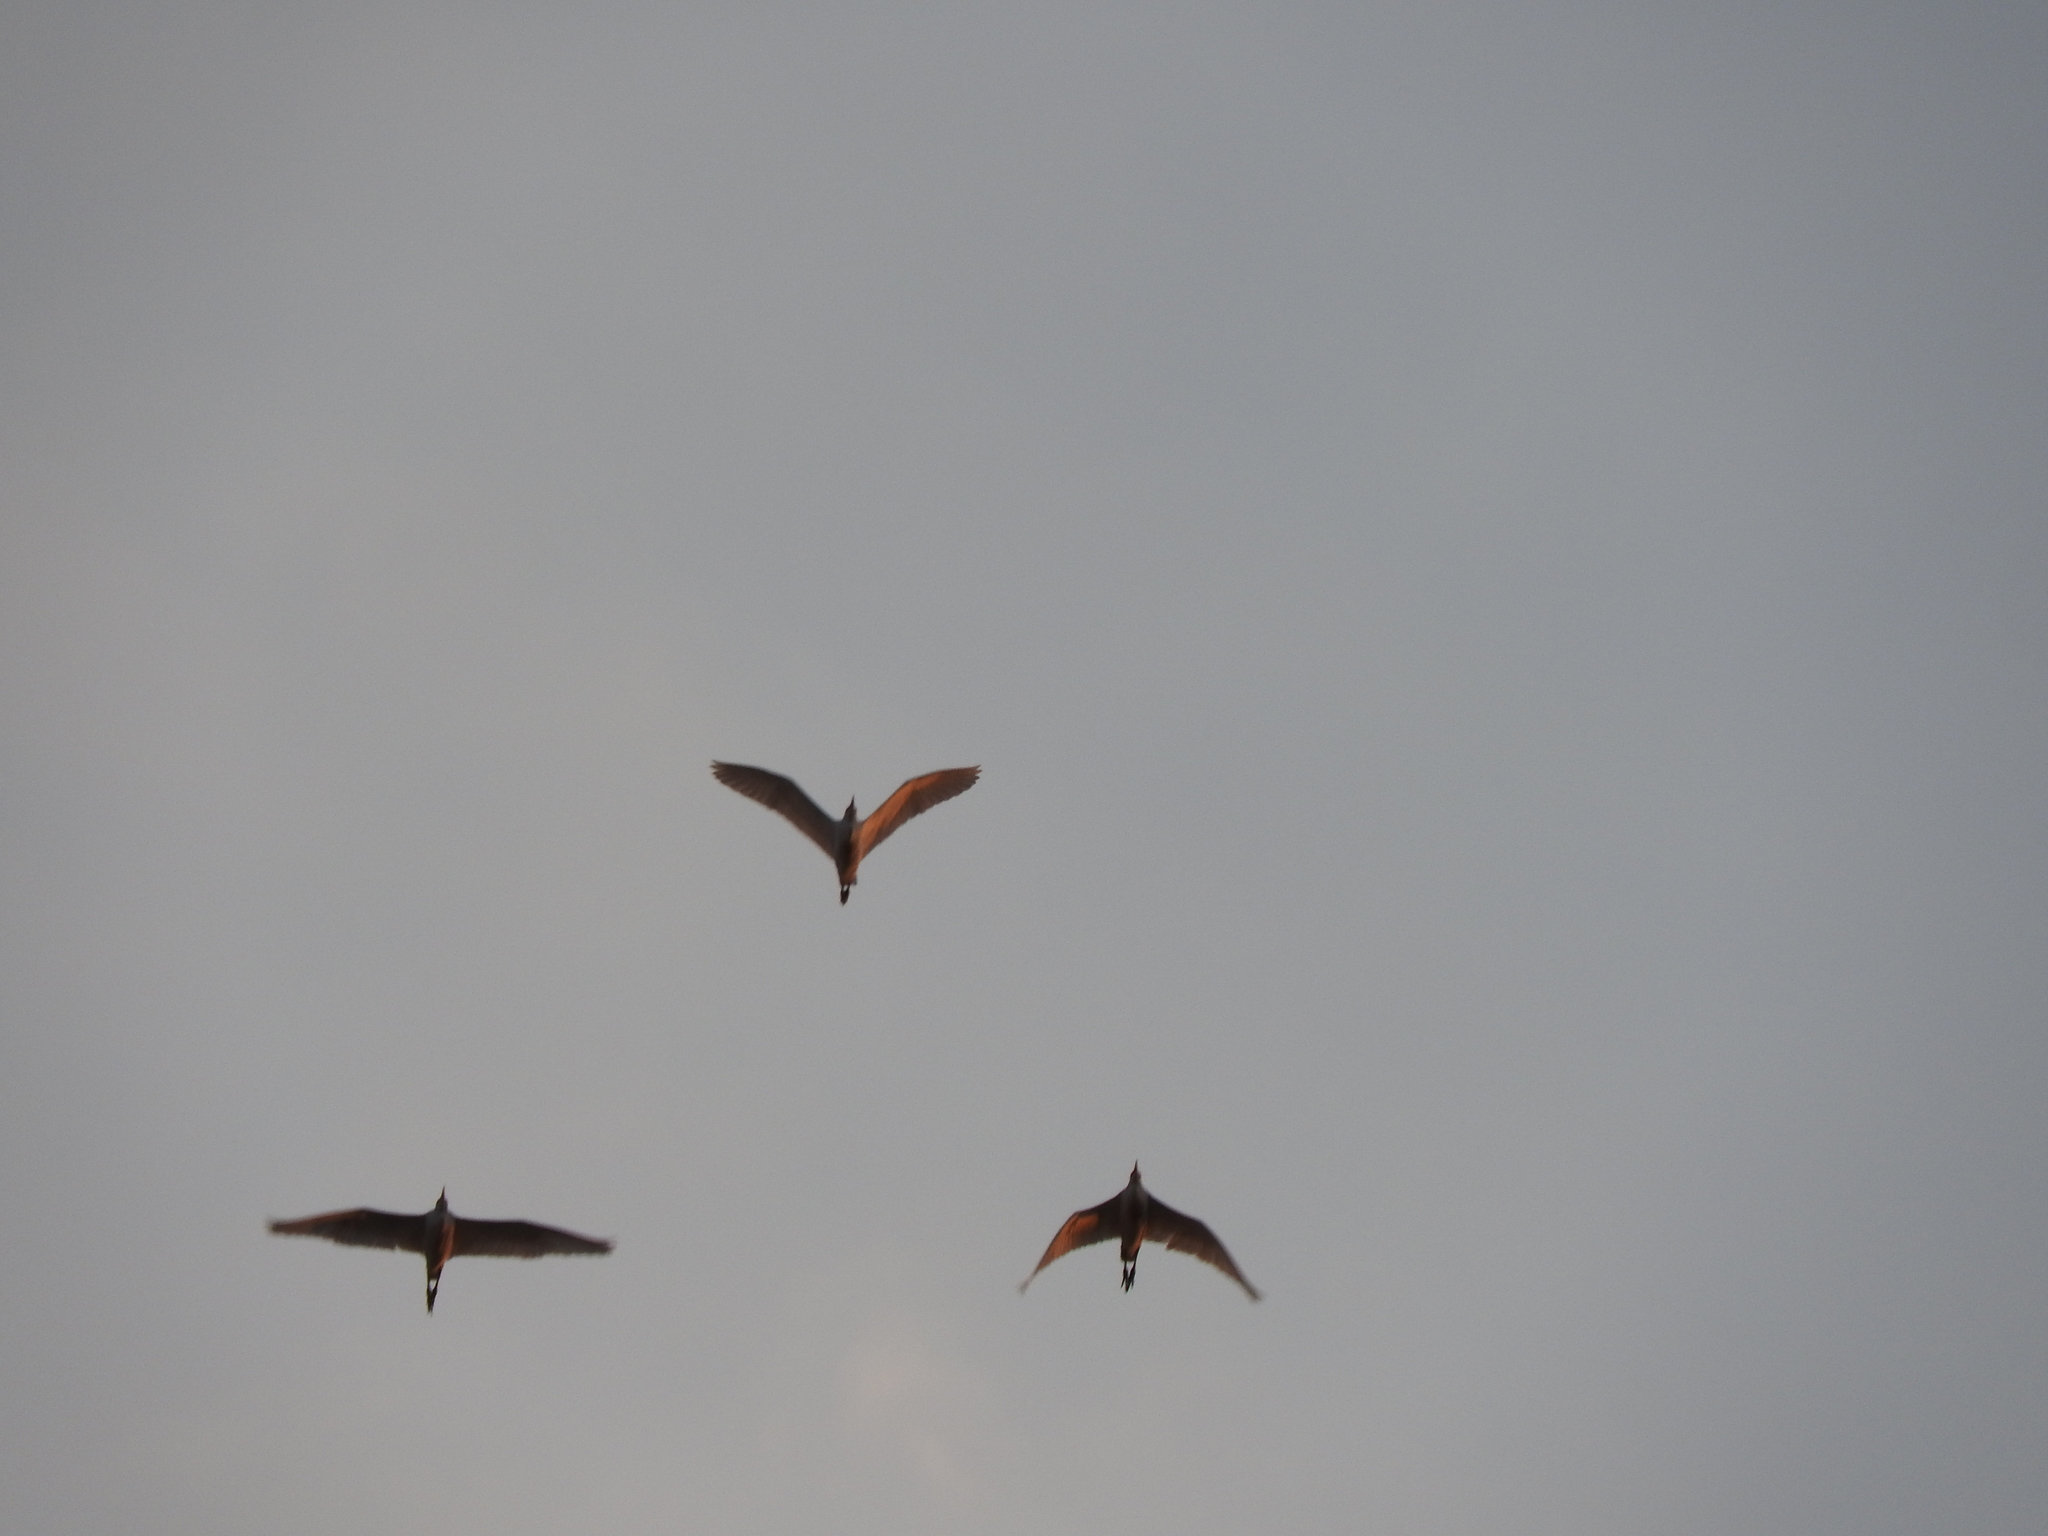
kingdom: Animalia
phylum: Chordata
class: Aves
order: Pelecaniformes
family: Ardeidae
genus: Bubulcus
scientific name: Bubulcus ibis
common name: Cattle egret
